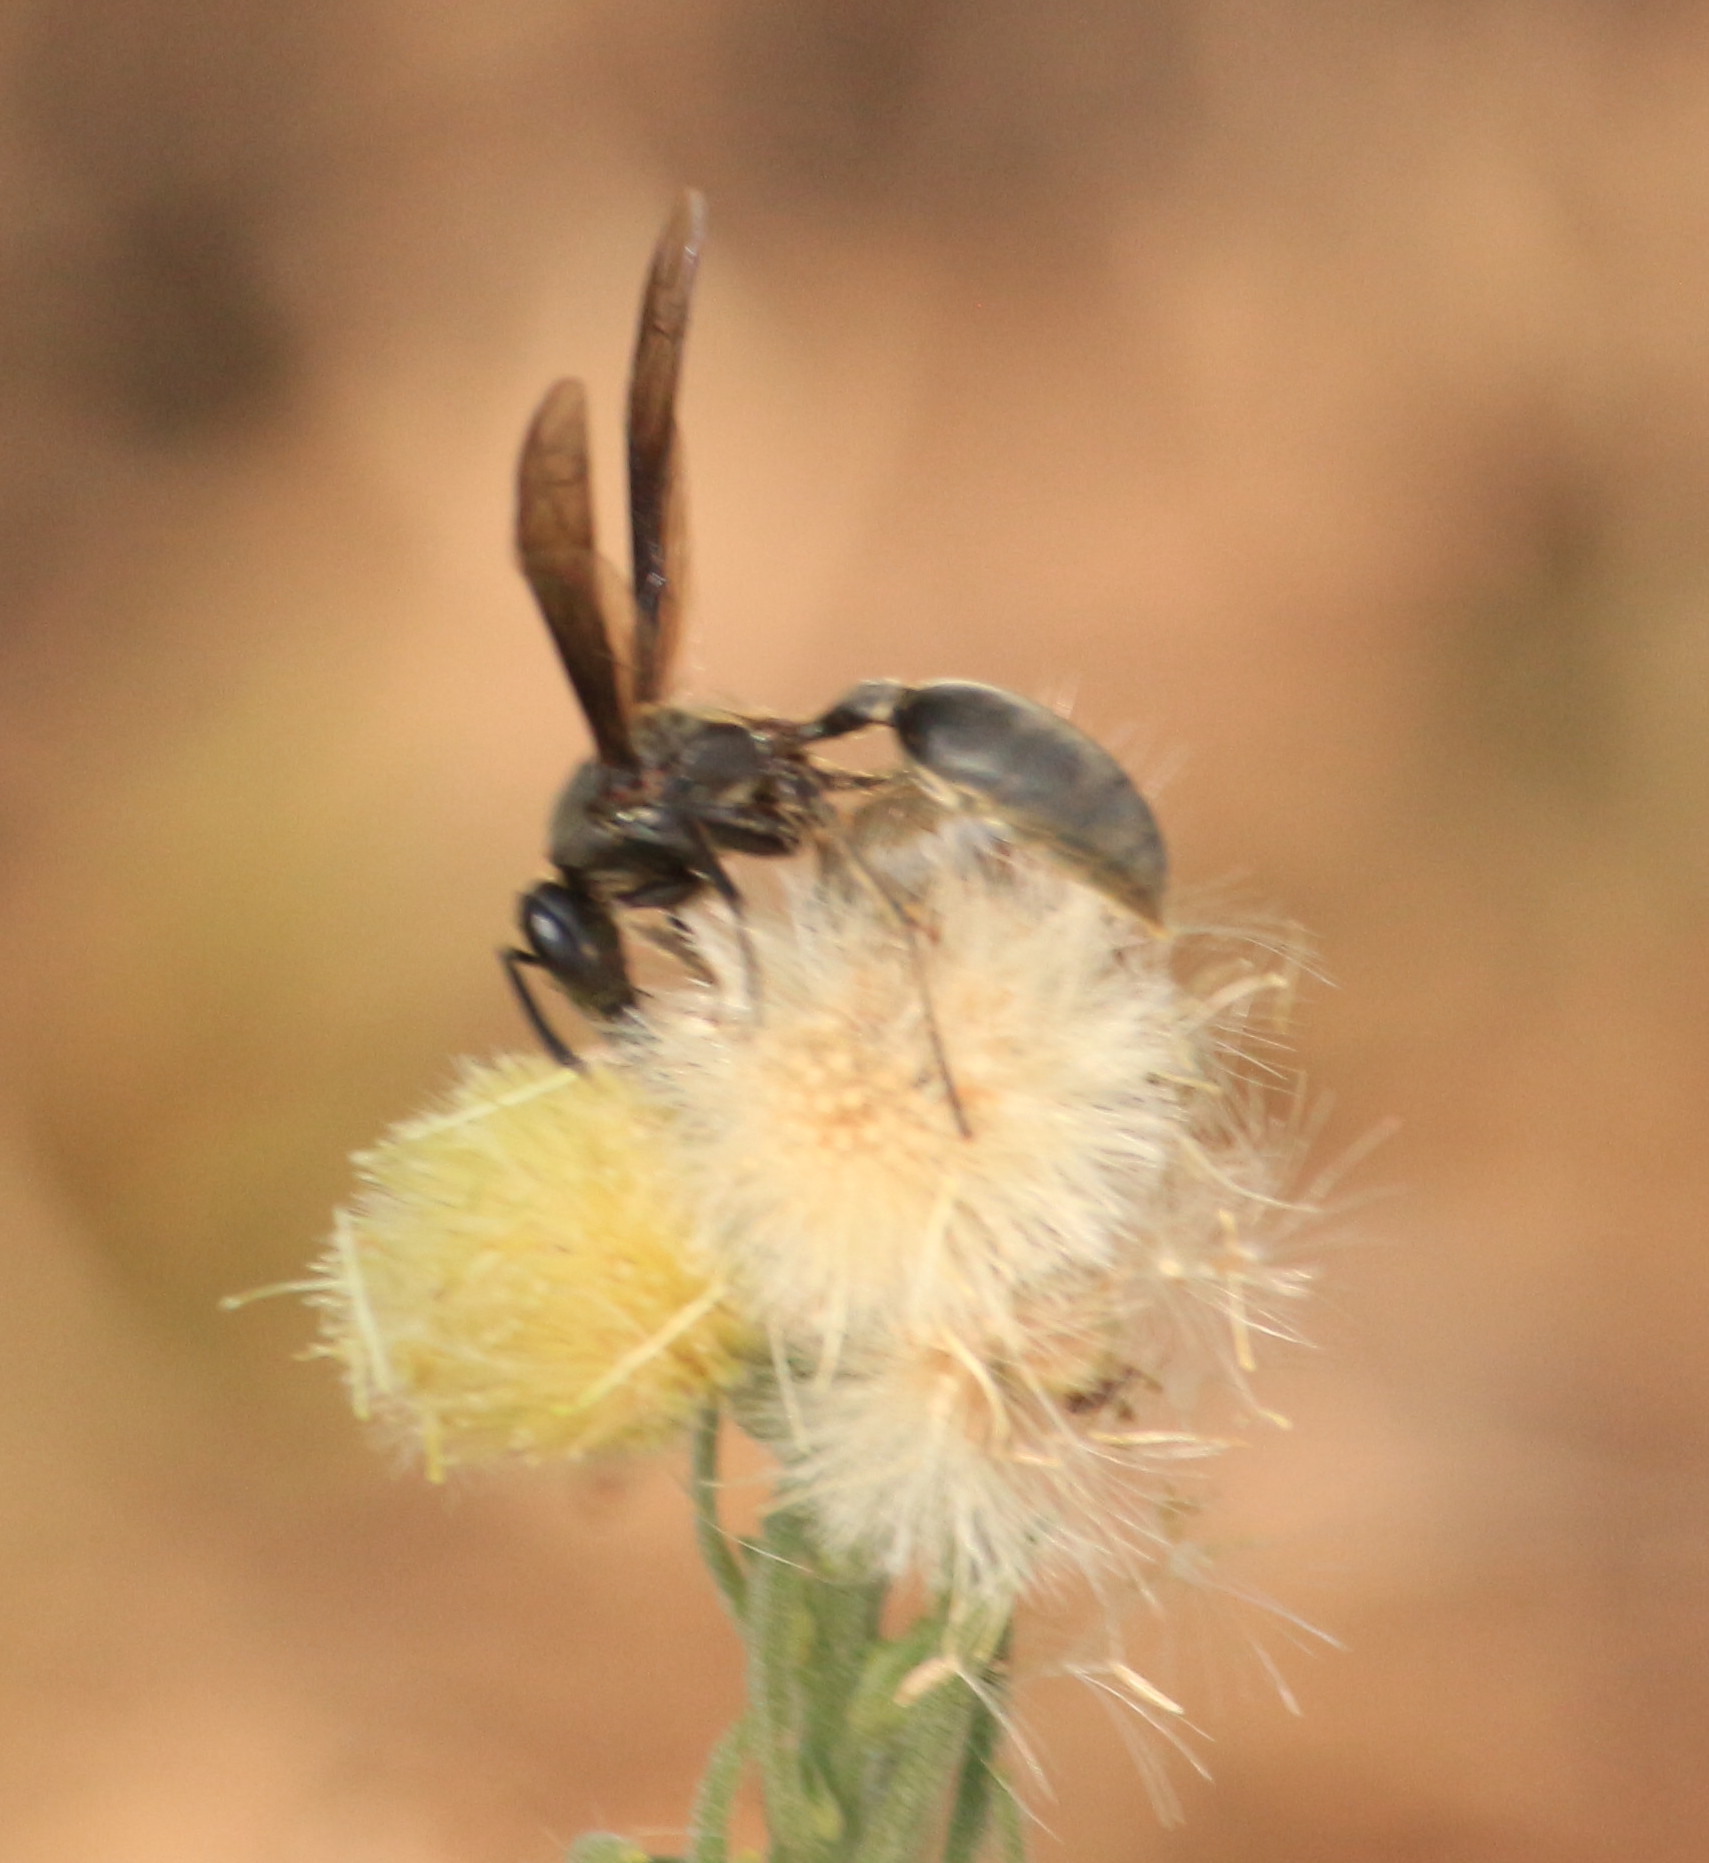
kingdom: Animalia
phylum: Arthropoda
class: Insecta
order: Hymenoptera
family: Eumenidae
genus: Polybia
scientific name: Polybia ignobilis
